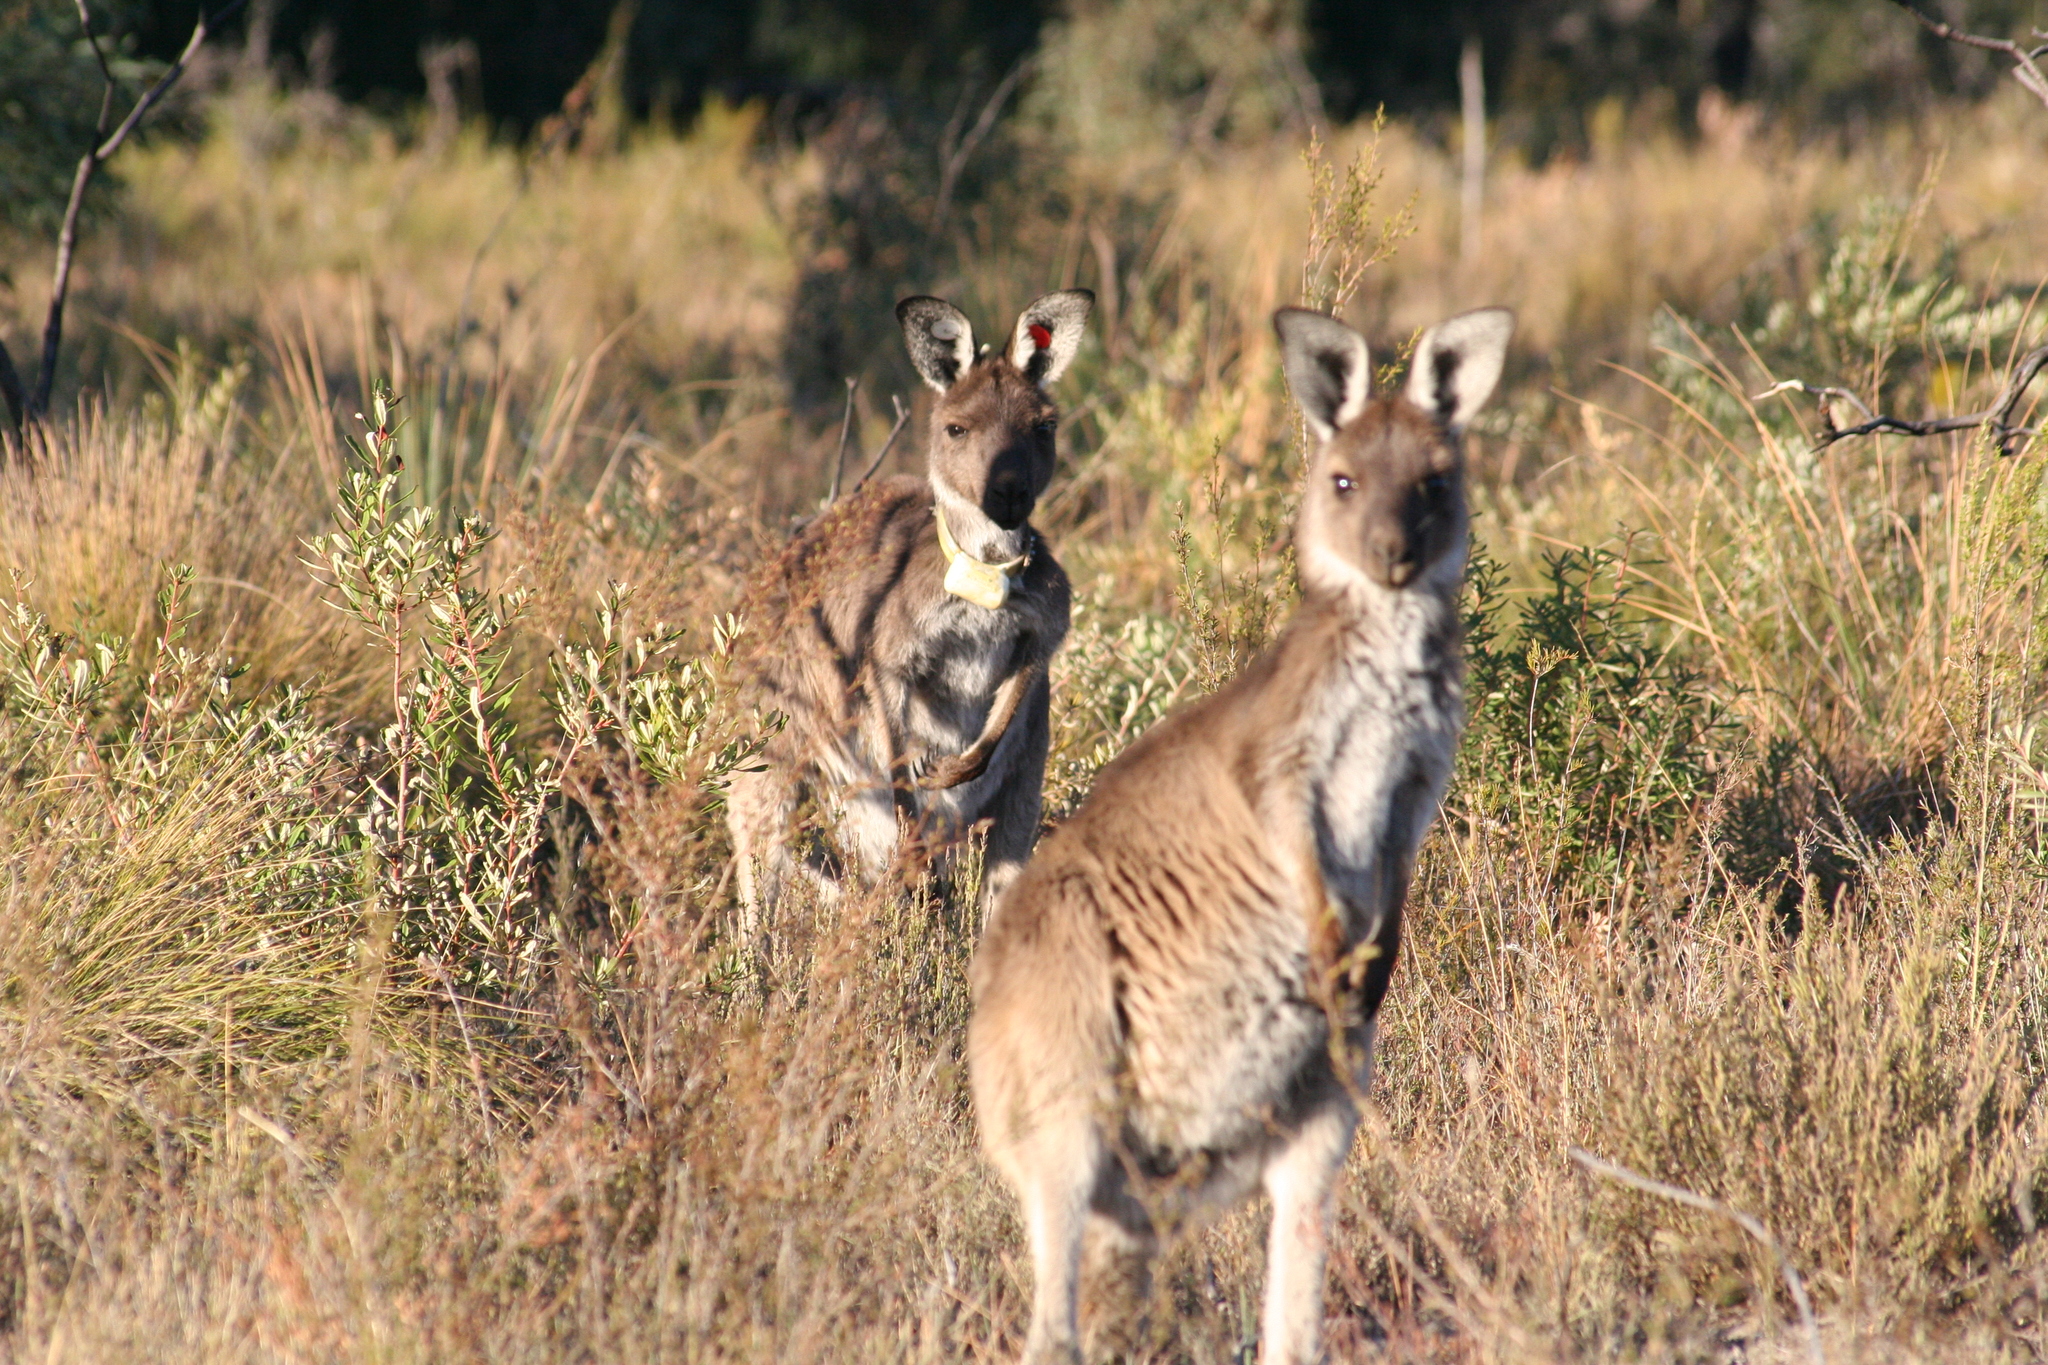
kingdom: Animalia
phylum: Chordata
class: Mammalia
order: Diprotodontia
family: Macropodidae
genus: Macropus
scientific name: Macropus fuliginosus
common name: Western grey kangaroo
